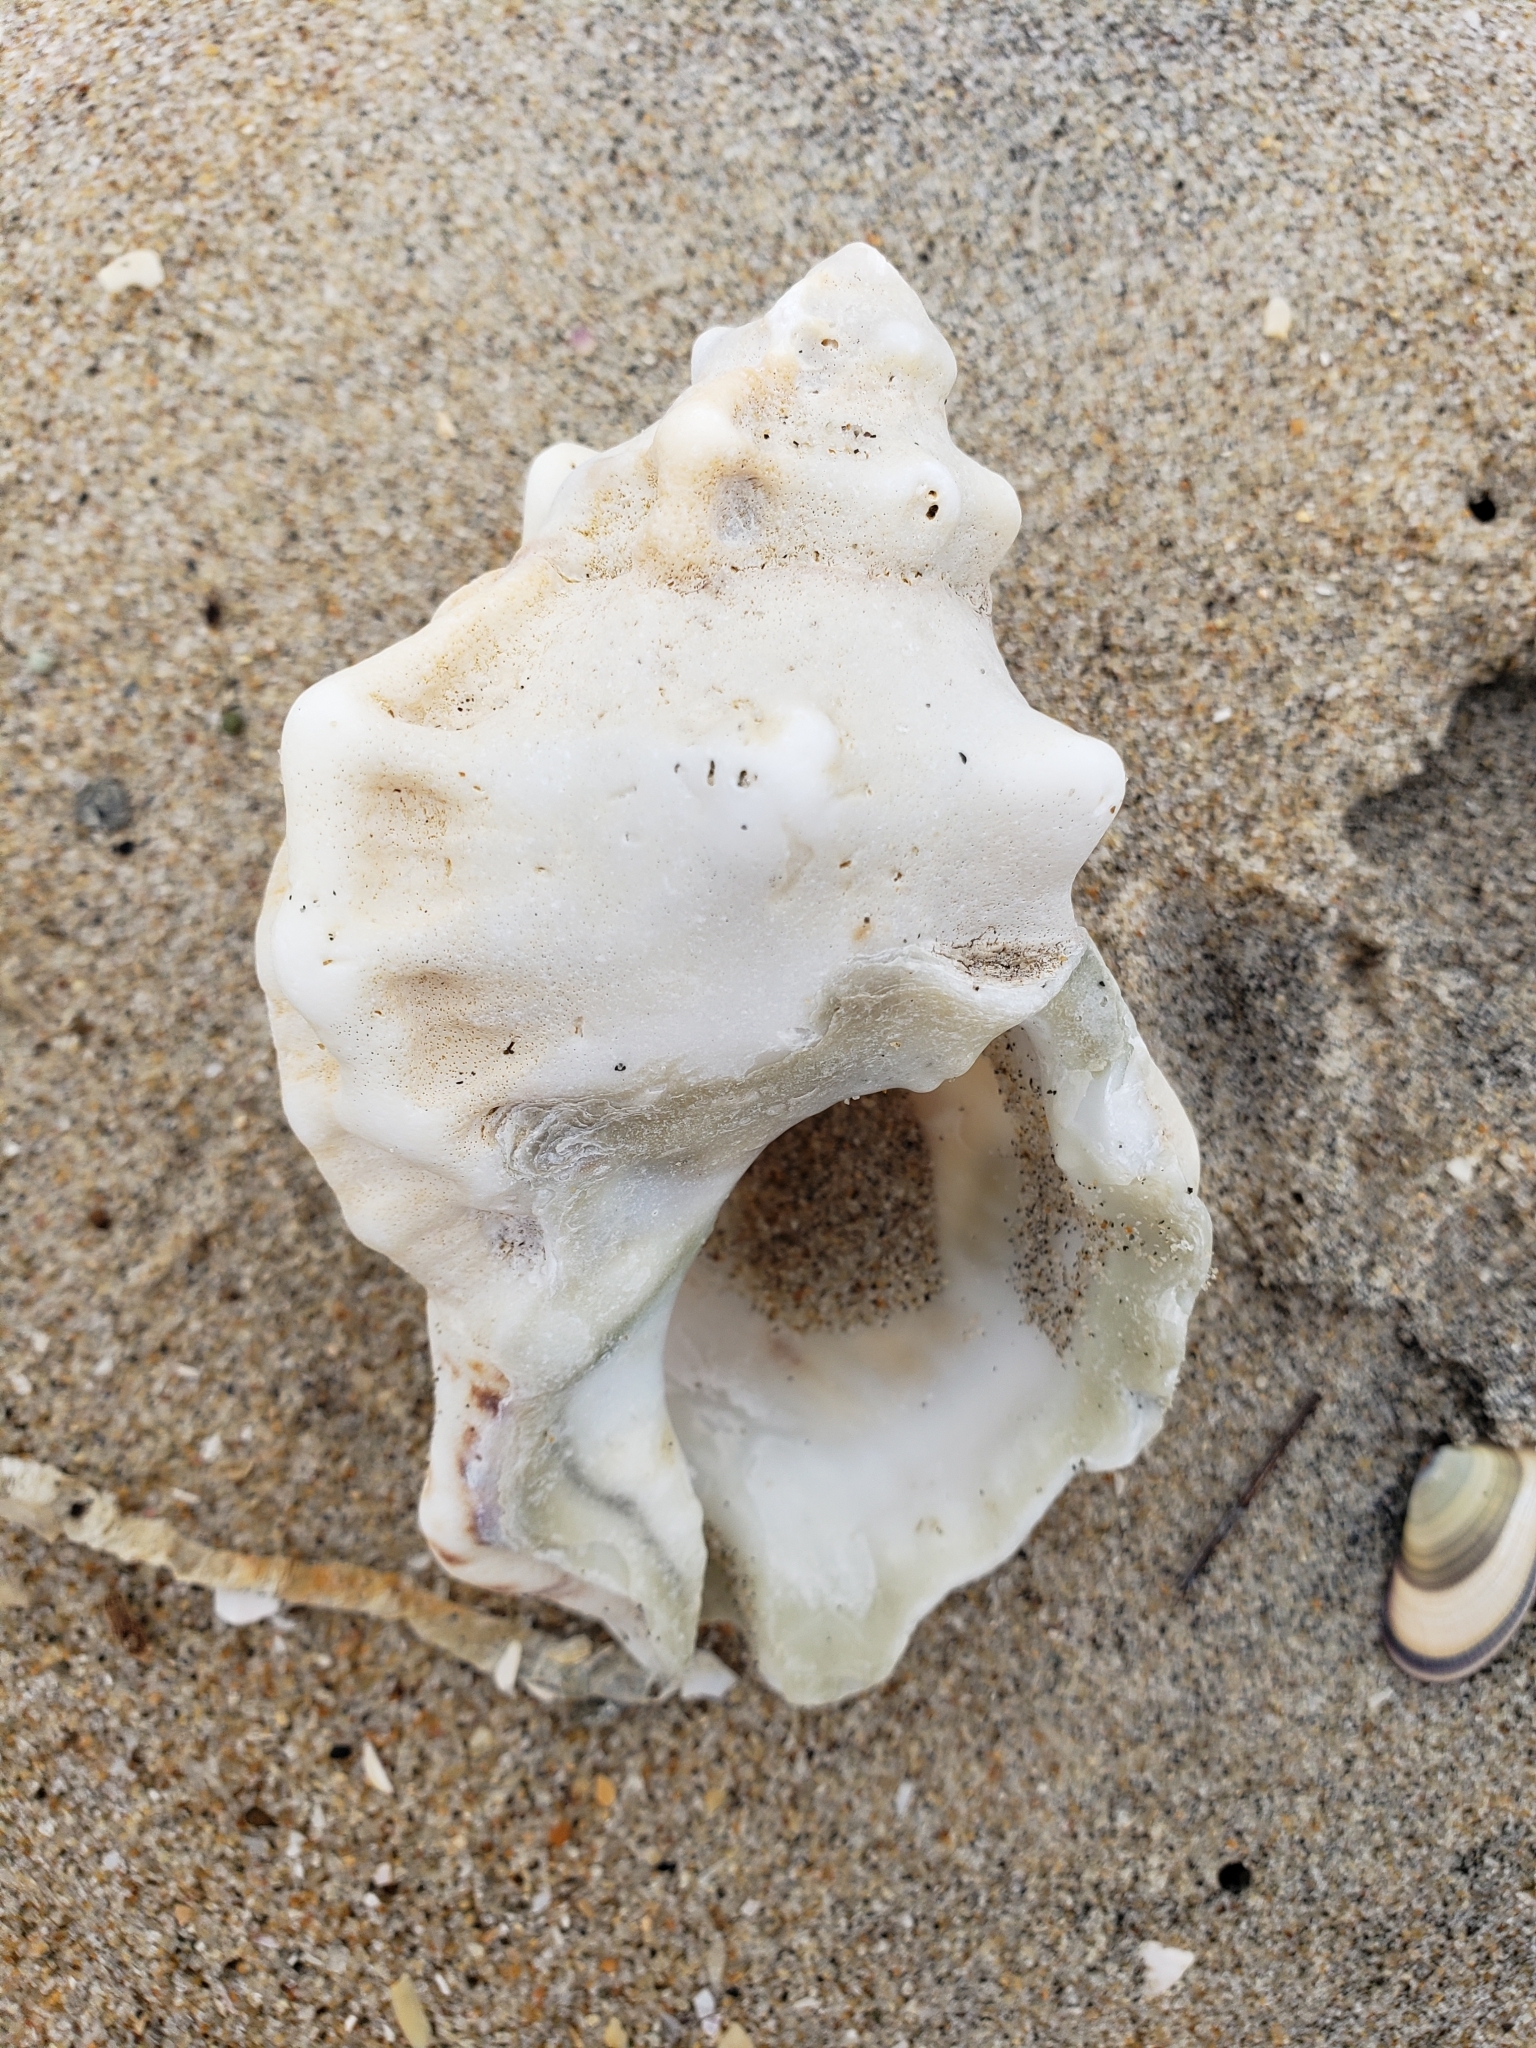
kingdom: Animalia
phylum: Mollusca
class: Gastropoda
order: Littorinimorpha
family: Bursidae
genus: Crossata
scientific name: Crossata californica
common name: California frogsnail
